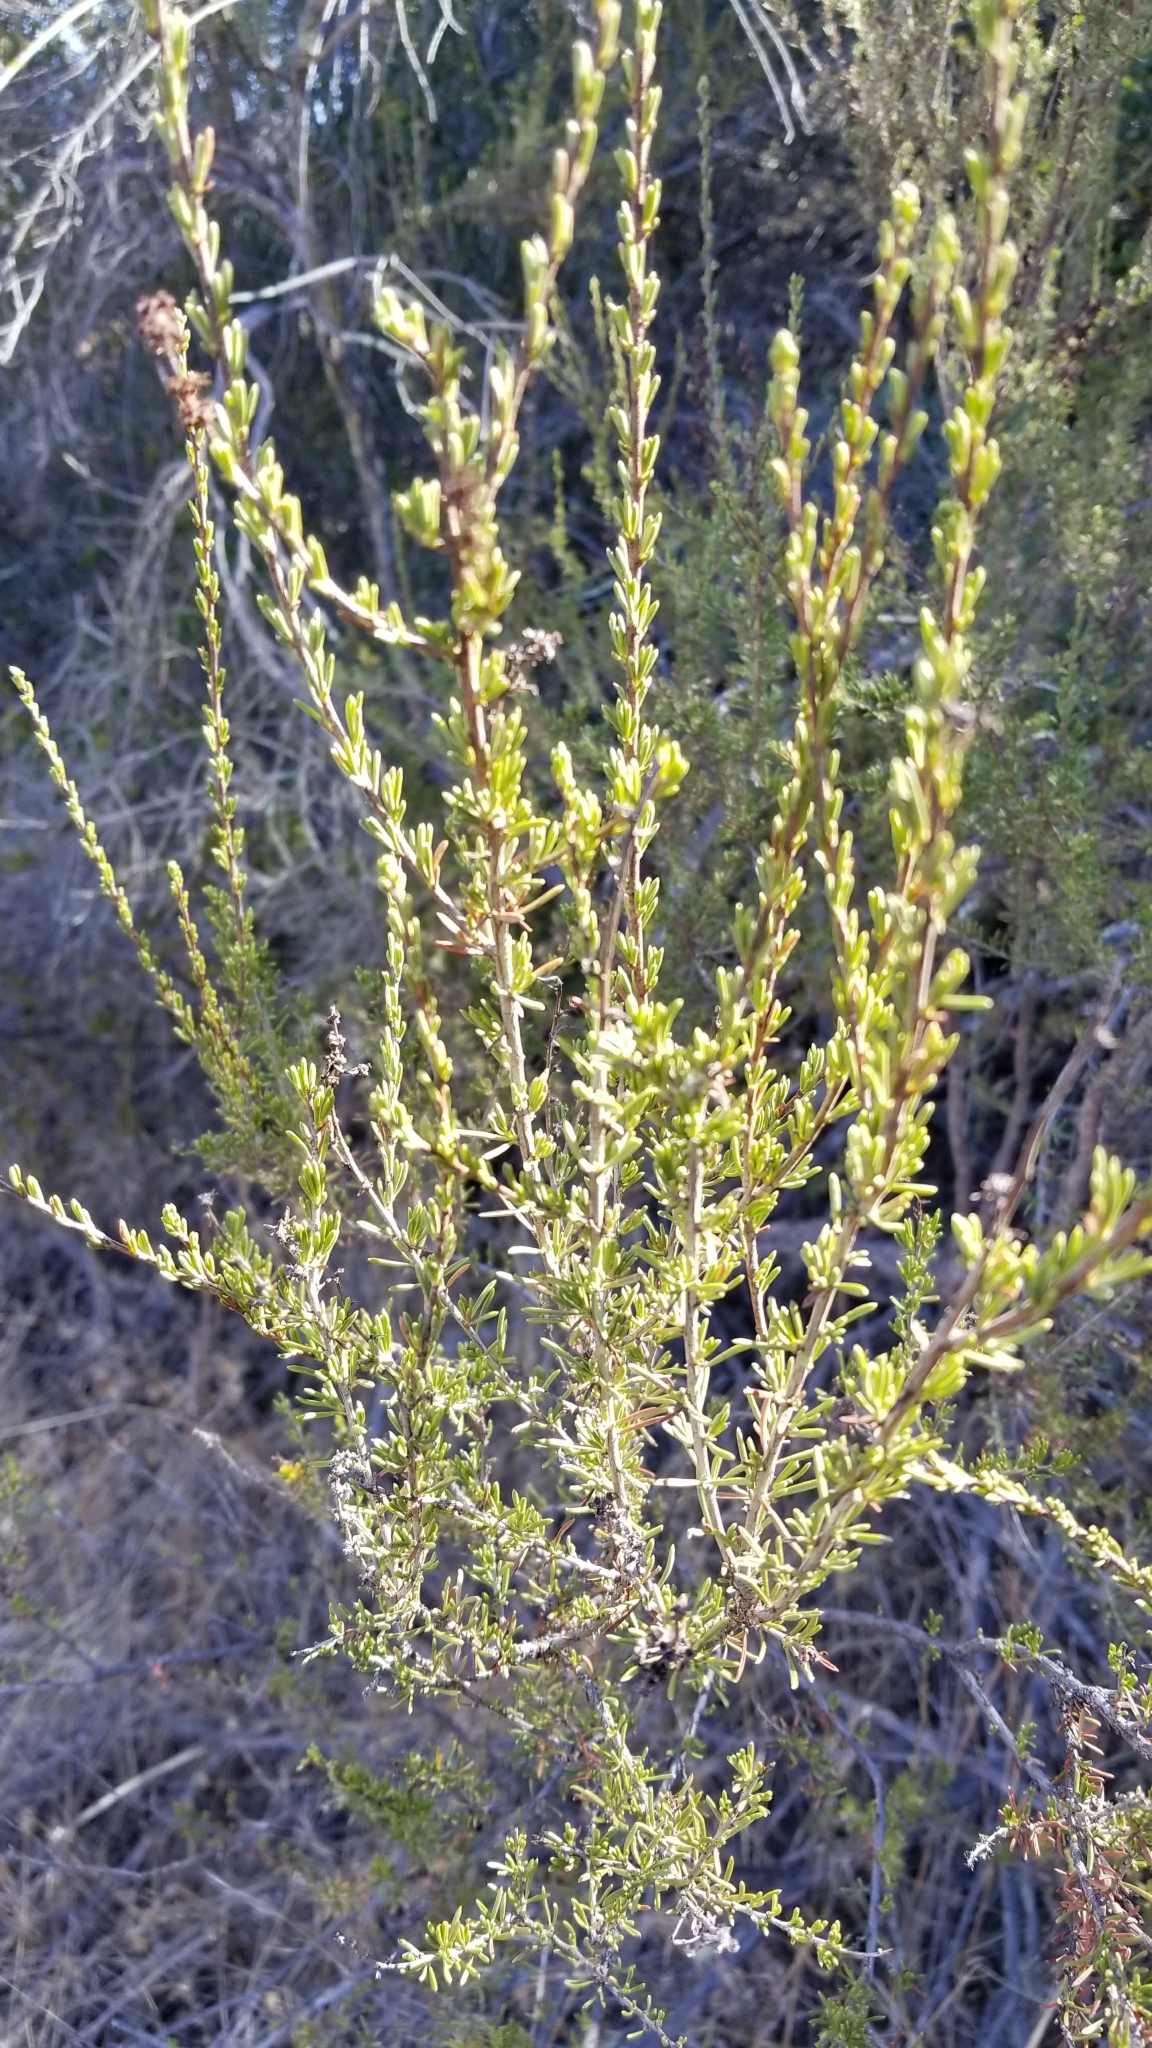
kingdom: Plantae
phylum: Tracheophyta
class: Magnoliopsida
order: Rosales
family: Rosaceae
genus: Adenostoma
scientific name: Adenostoma fasciculatum
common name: Chamise
